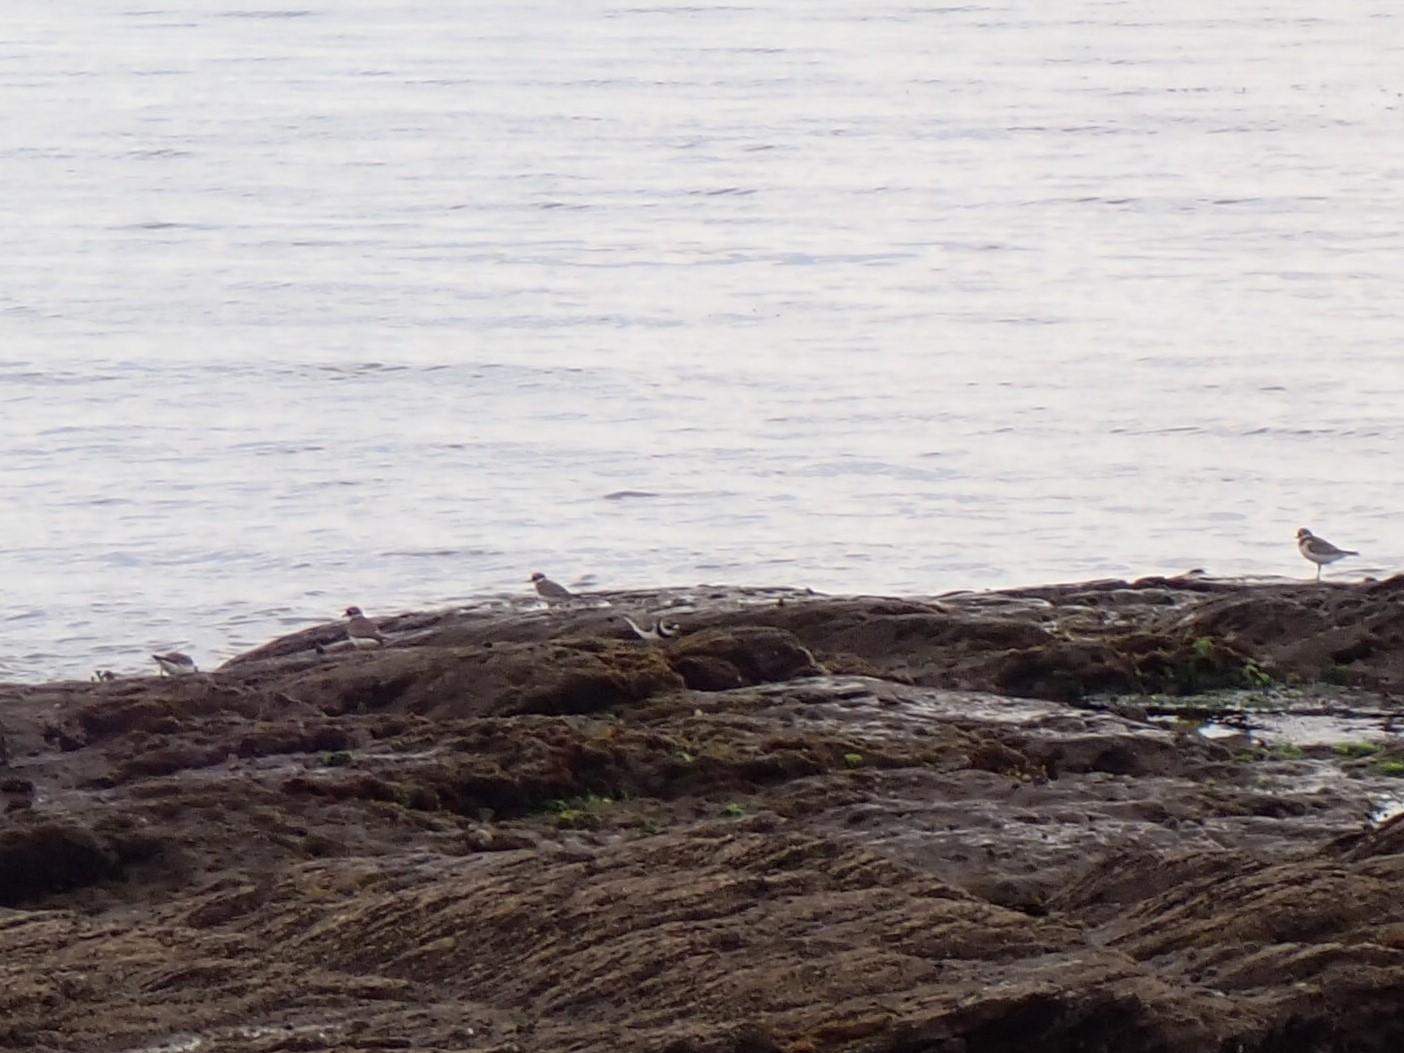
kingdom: Animalia
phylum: Chordata
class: Aves
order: Charadriiformes
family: Charadriidae
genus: Charadrius
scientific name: Charadrius hiaticula
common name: Common ringed plover
